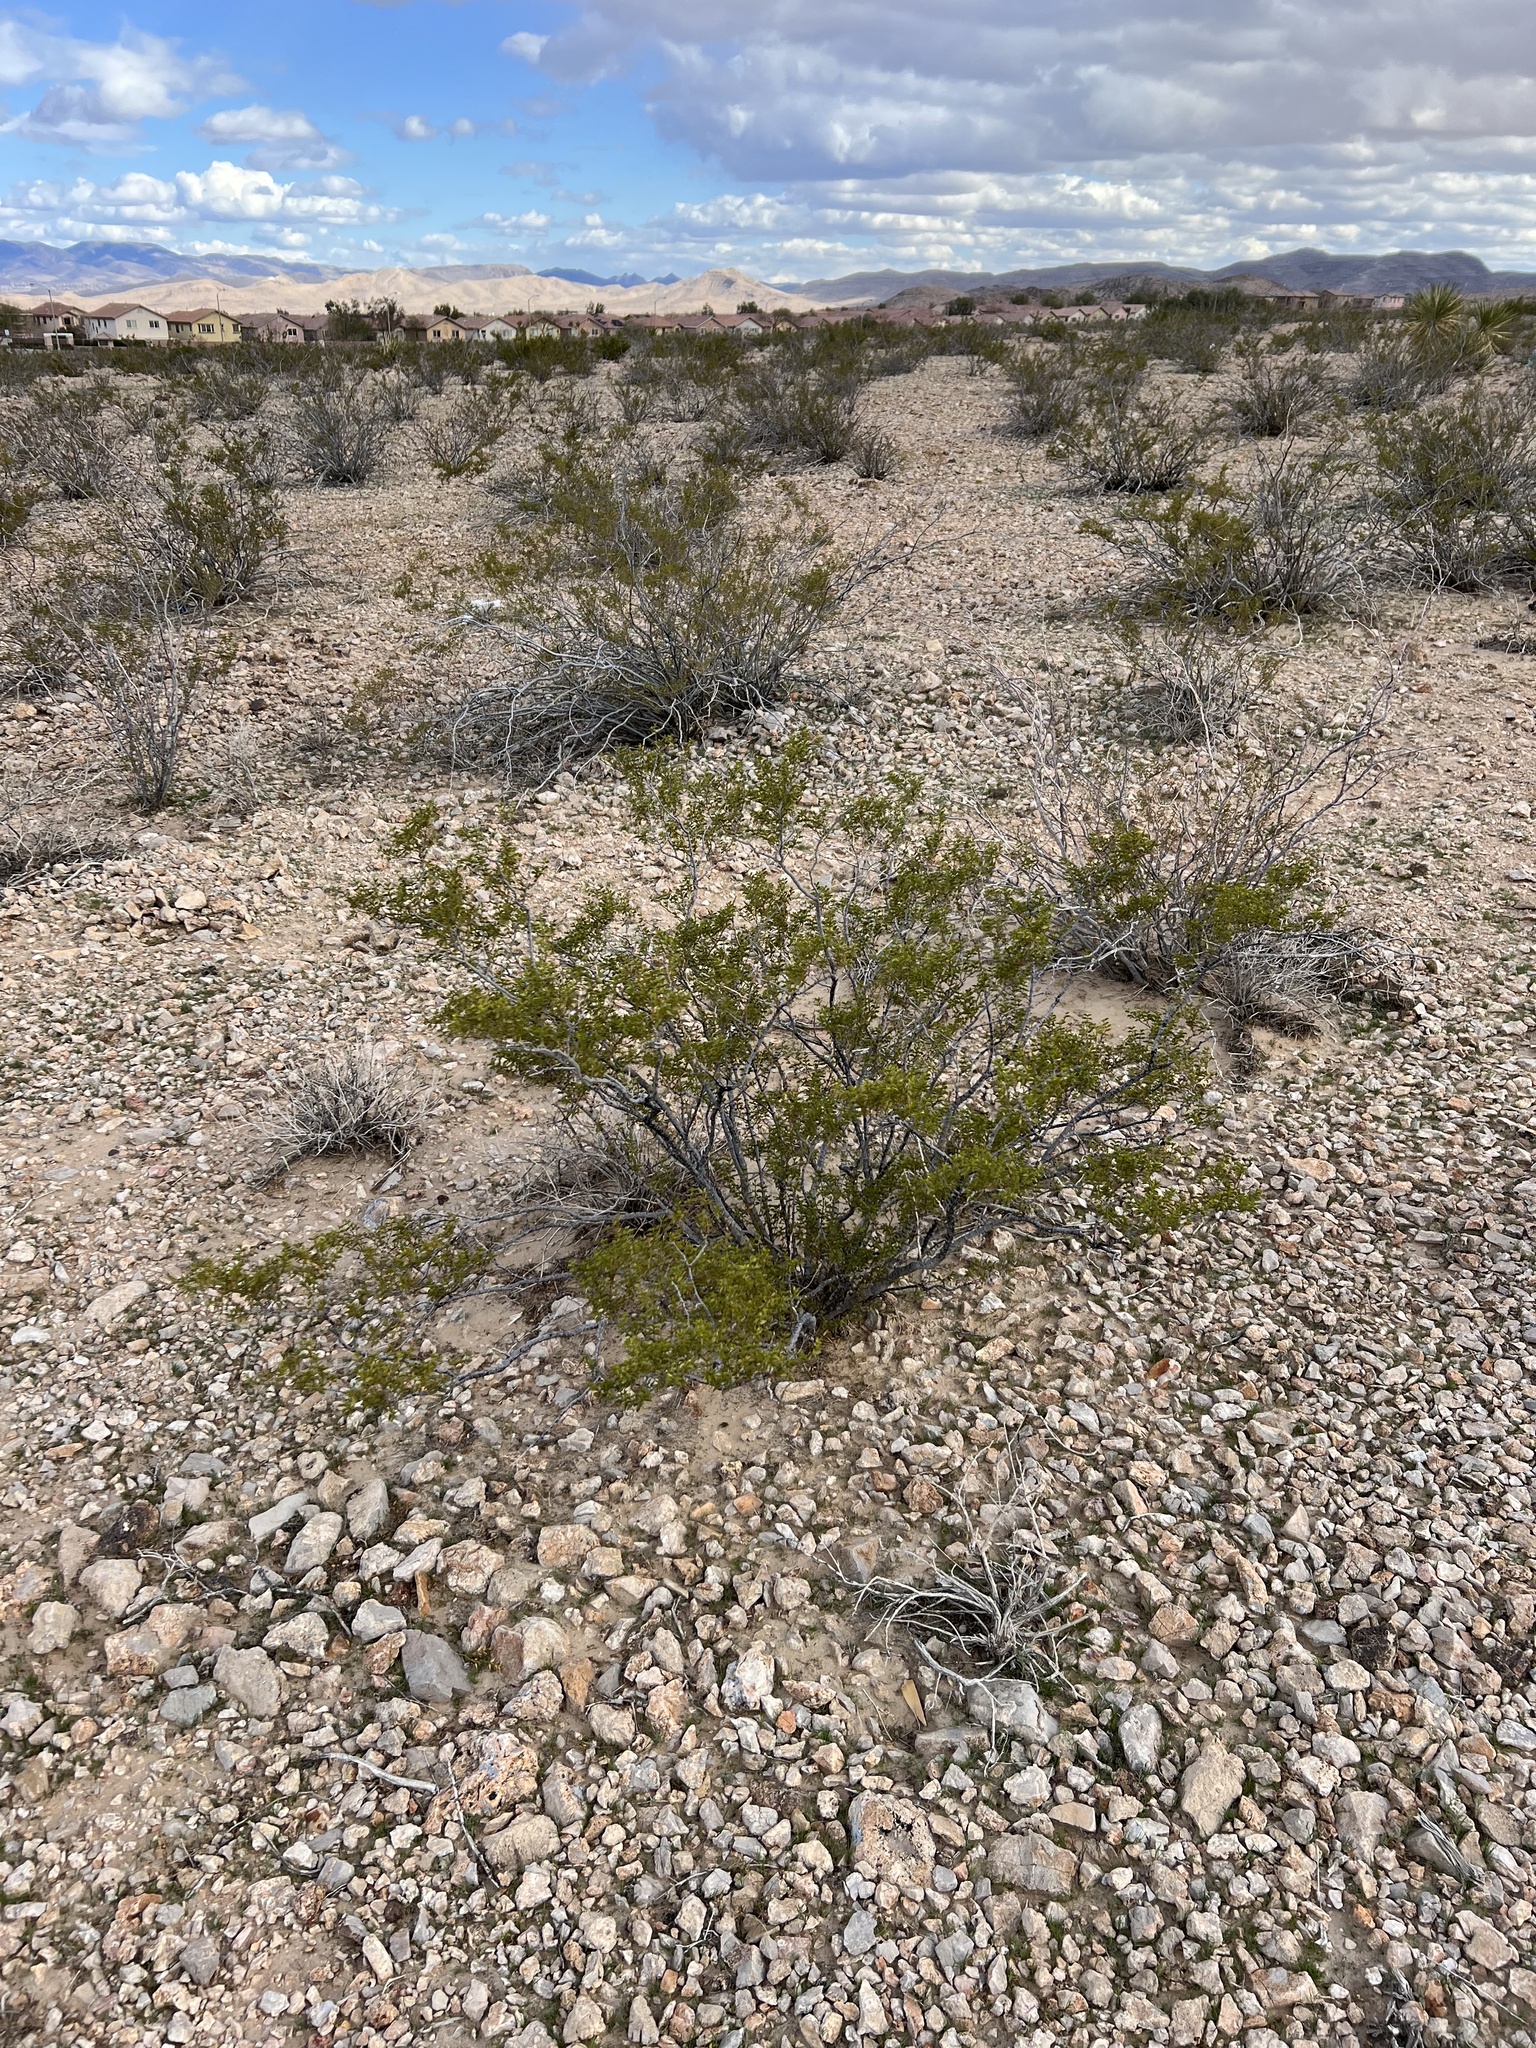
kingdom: Plantae
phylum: Tracheophyta
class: Magnoliopsida
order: Zygophyllales
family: Zygophyllaceae
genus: Larrea
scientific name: Larrea tridentata
